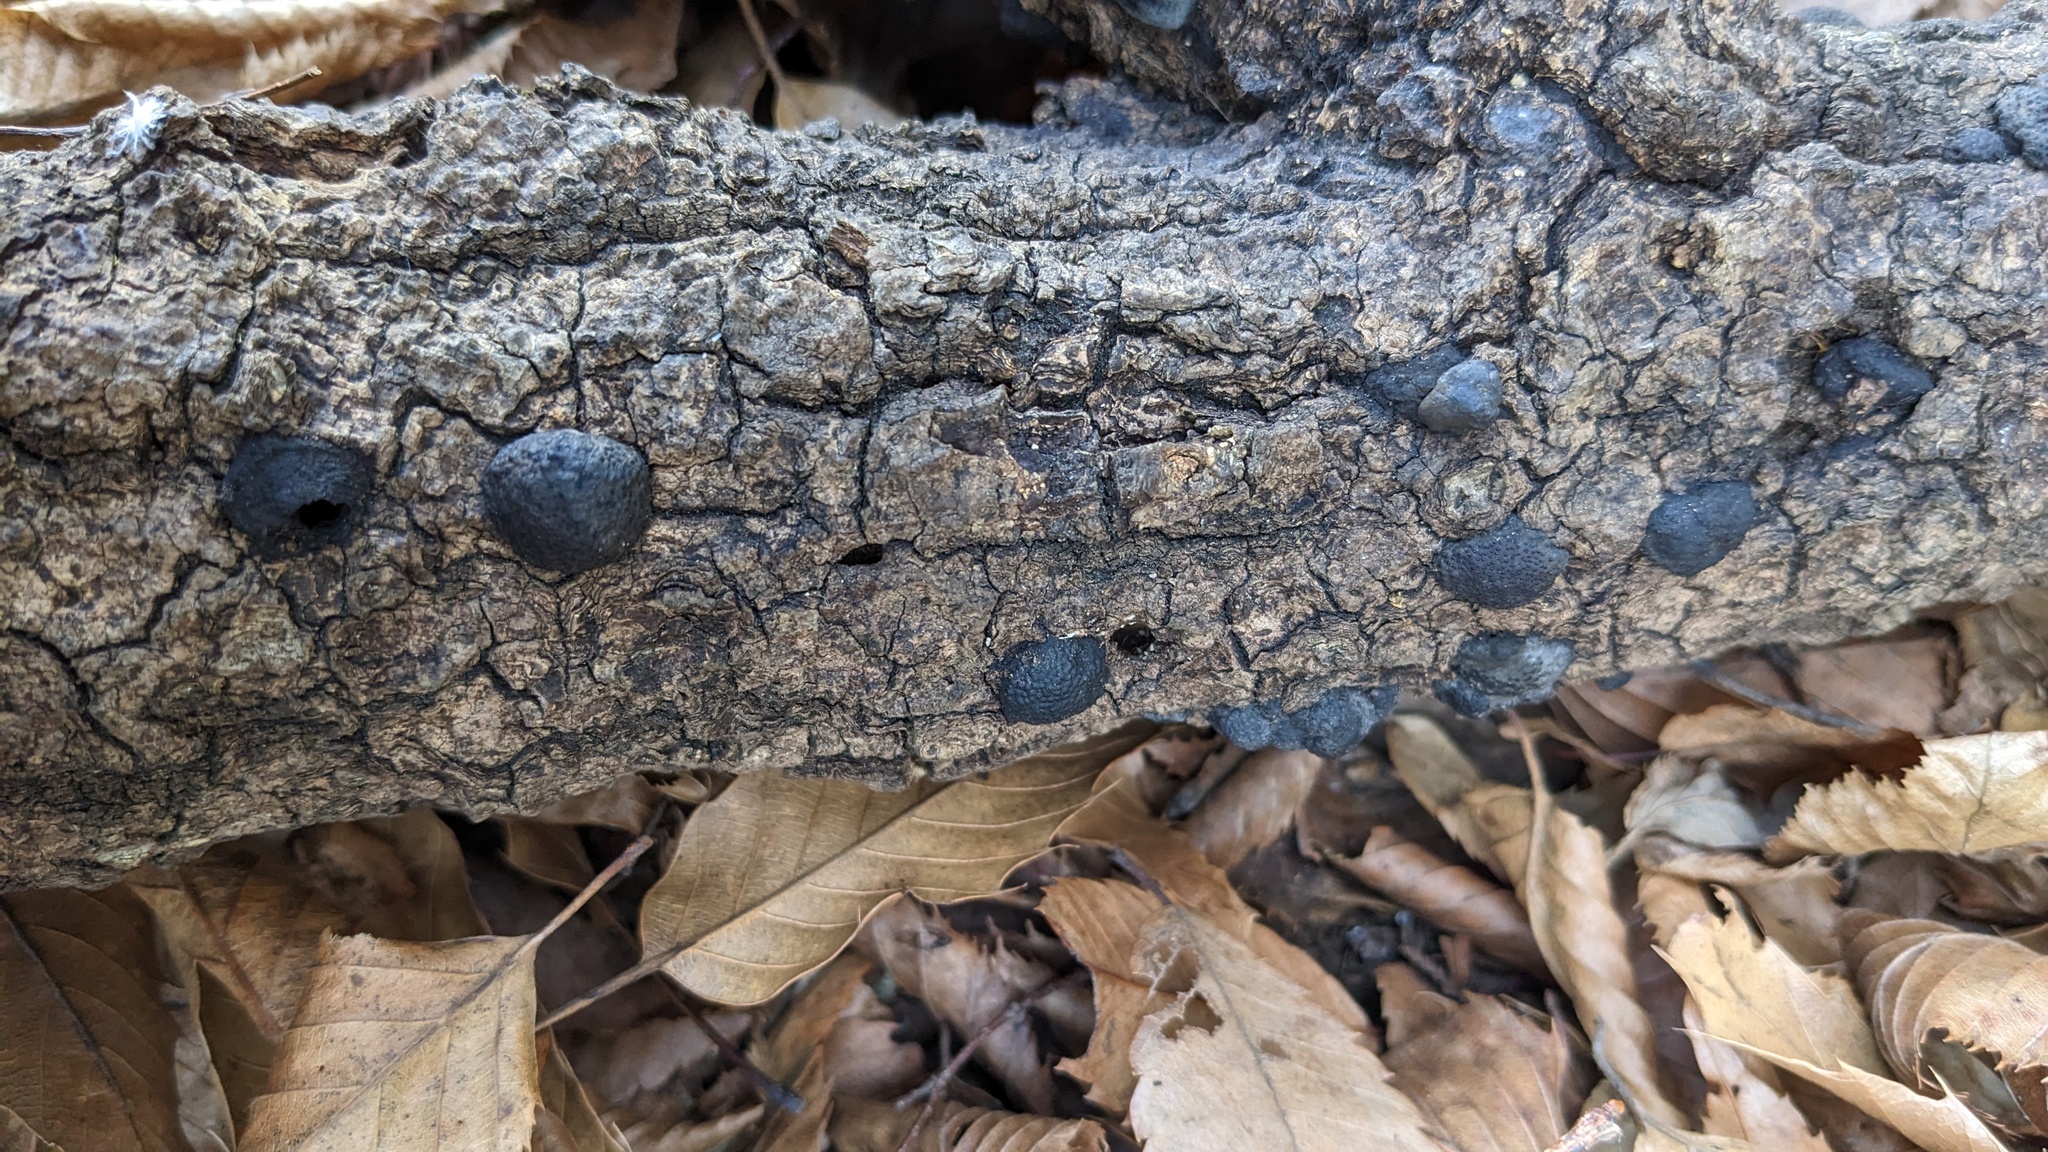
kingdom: Fungi
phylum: Ascomycota
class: Sordariomycetes
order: Xylariales
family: Hypoxylaceae
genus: Annulohypoxylon
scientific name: Annulohypoxylon truncatum
